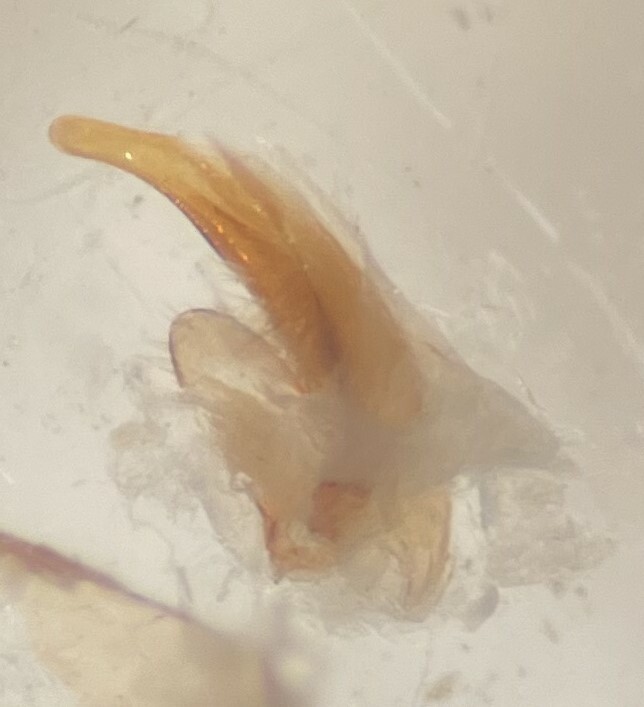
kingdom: Animalia
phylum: Arthropoda
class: Insecta
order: Coleoptera
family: Haliplidae
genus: Haliplus
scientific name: Haliplus tumidus
